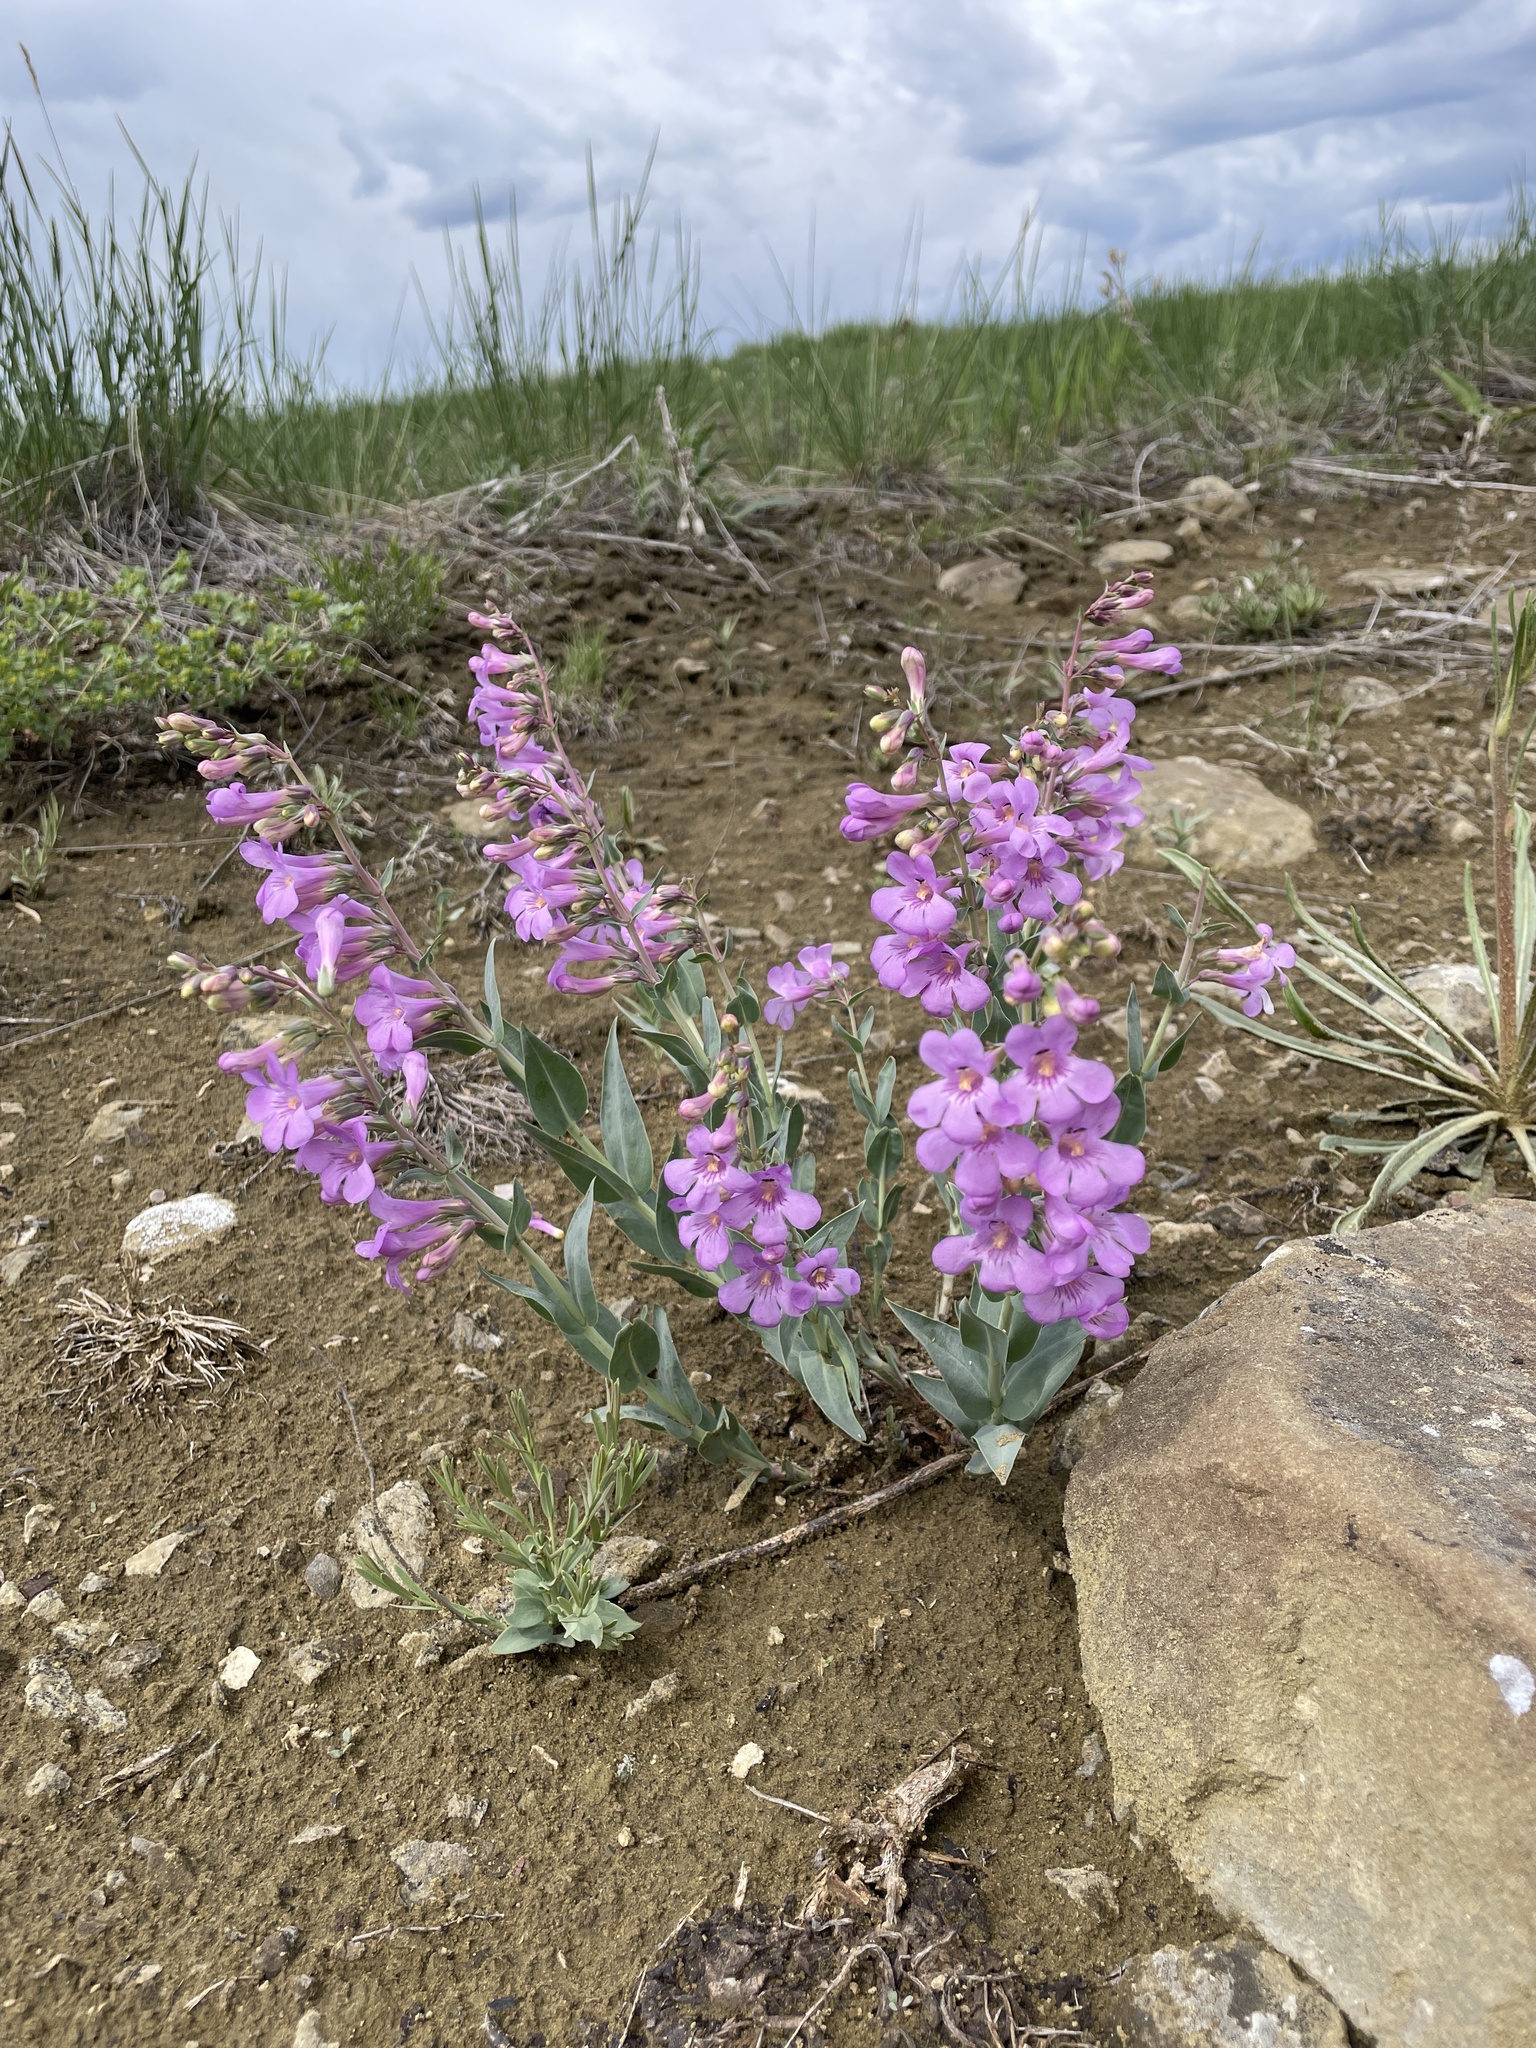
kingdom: Plantae
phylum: Tracheophyta
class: Magnoliopsida
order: Lamiales
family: Plantaginaceae
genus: Penstemon
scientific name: Penstemon secundiflorus
